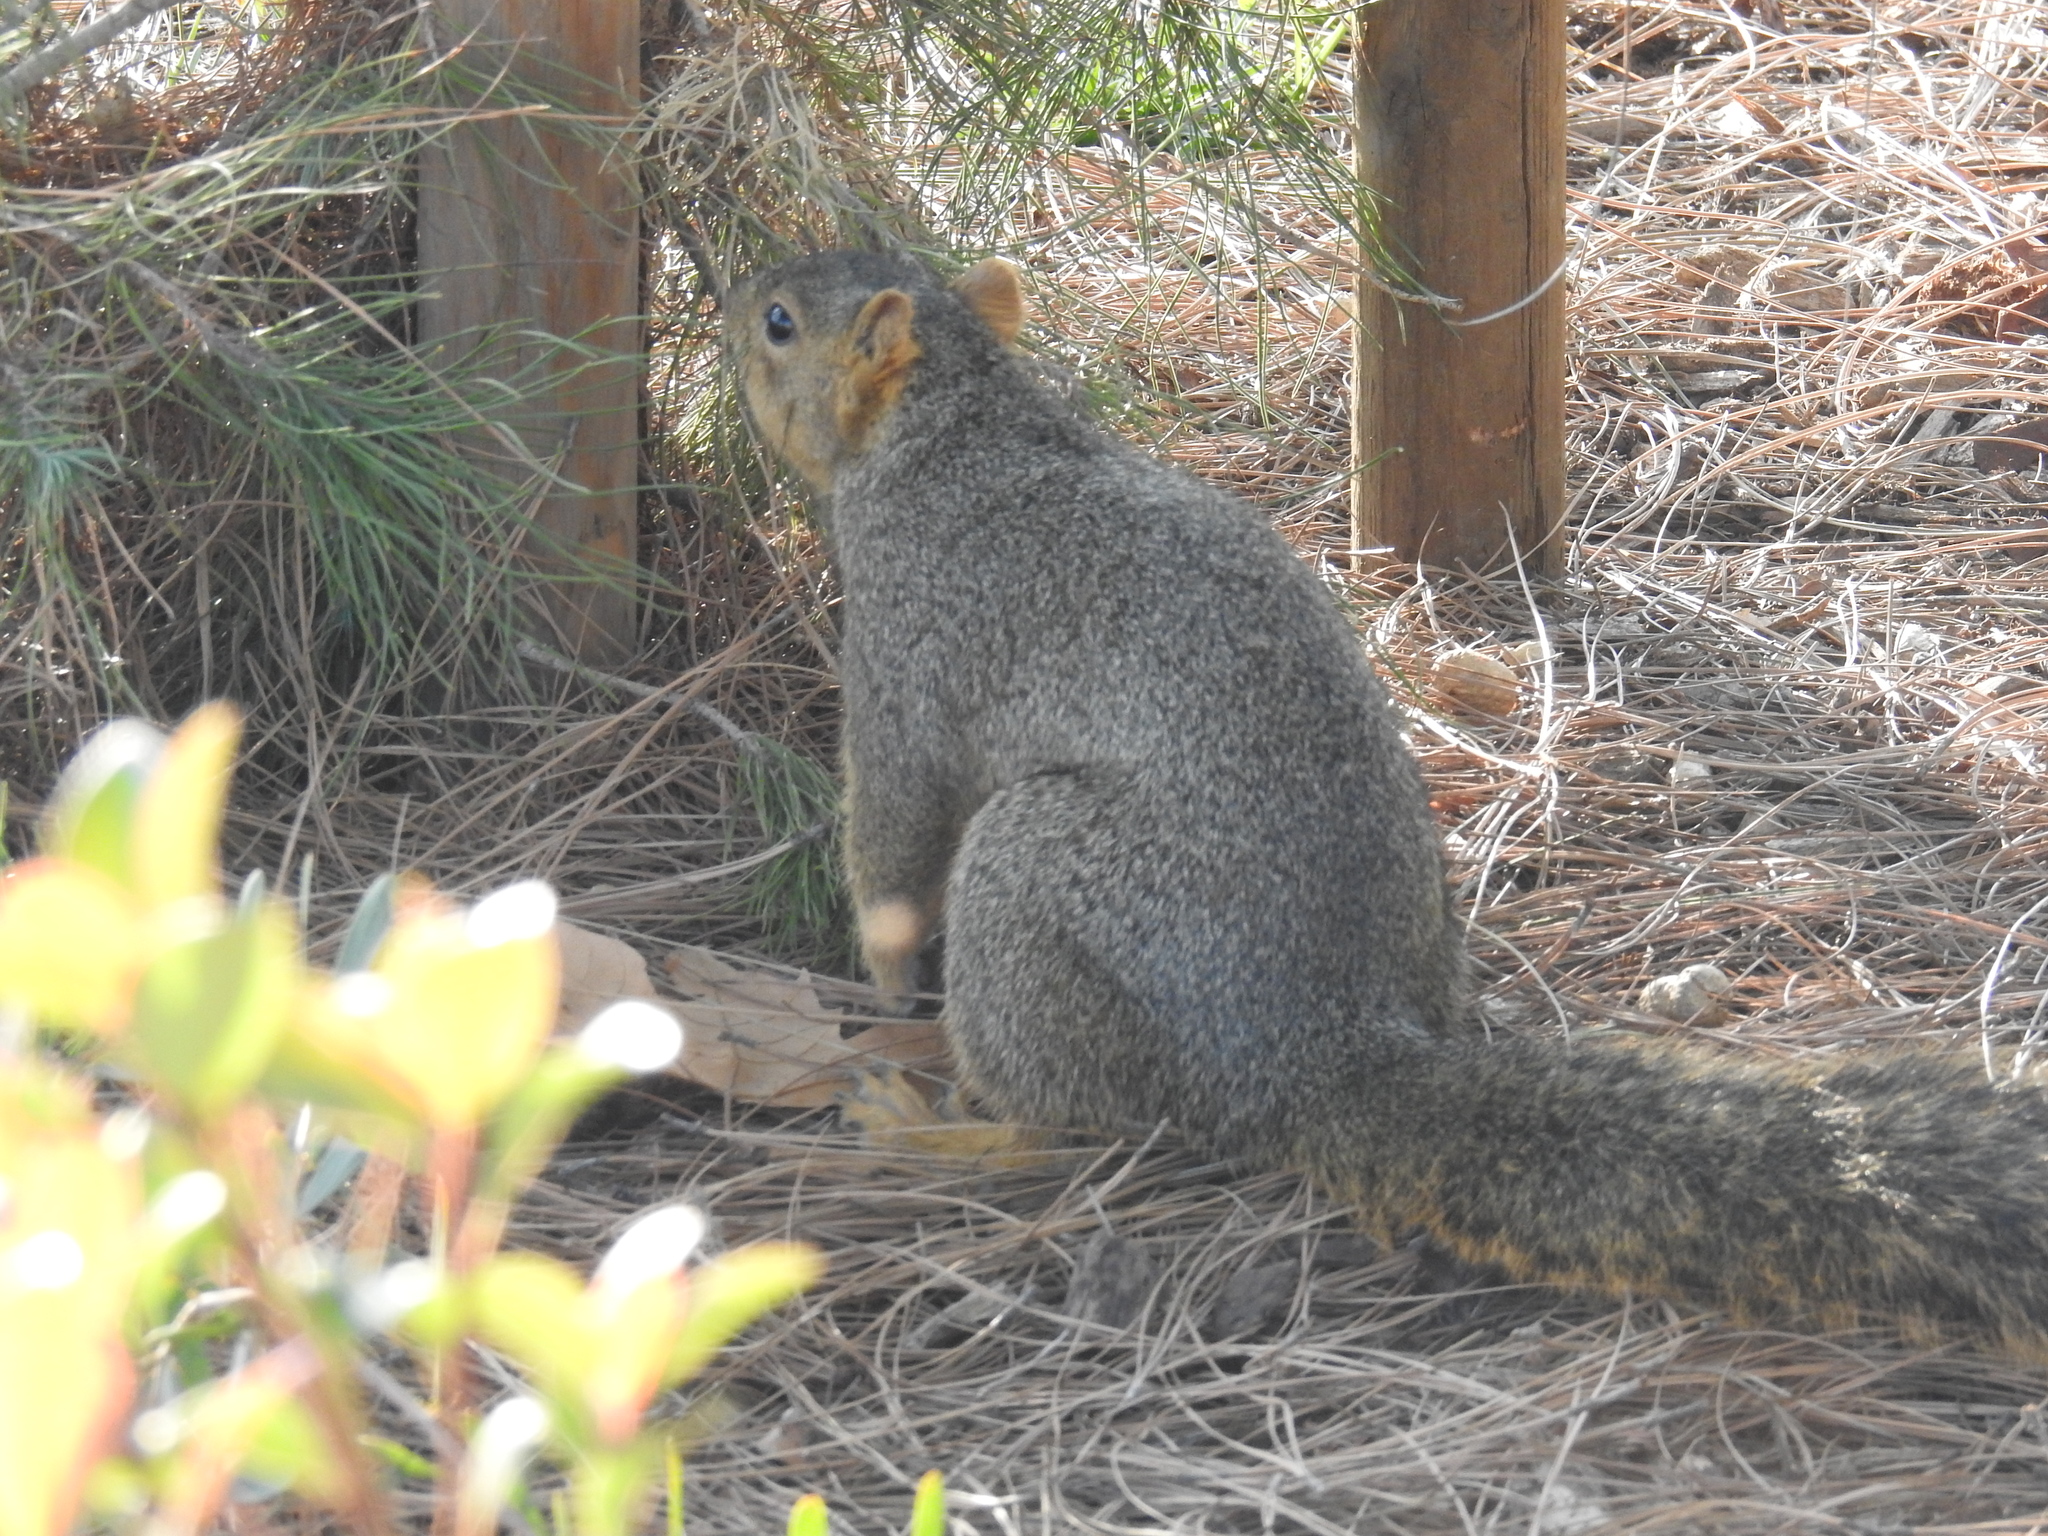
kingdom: Animalia
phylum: Chordata
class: Mammalia
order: Rodentia
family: Sciuridae
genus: Sciurus
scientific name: Sciurus niger
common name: Fox squirrel
